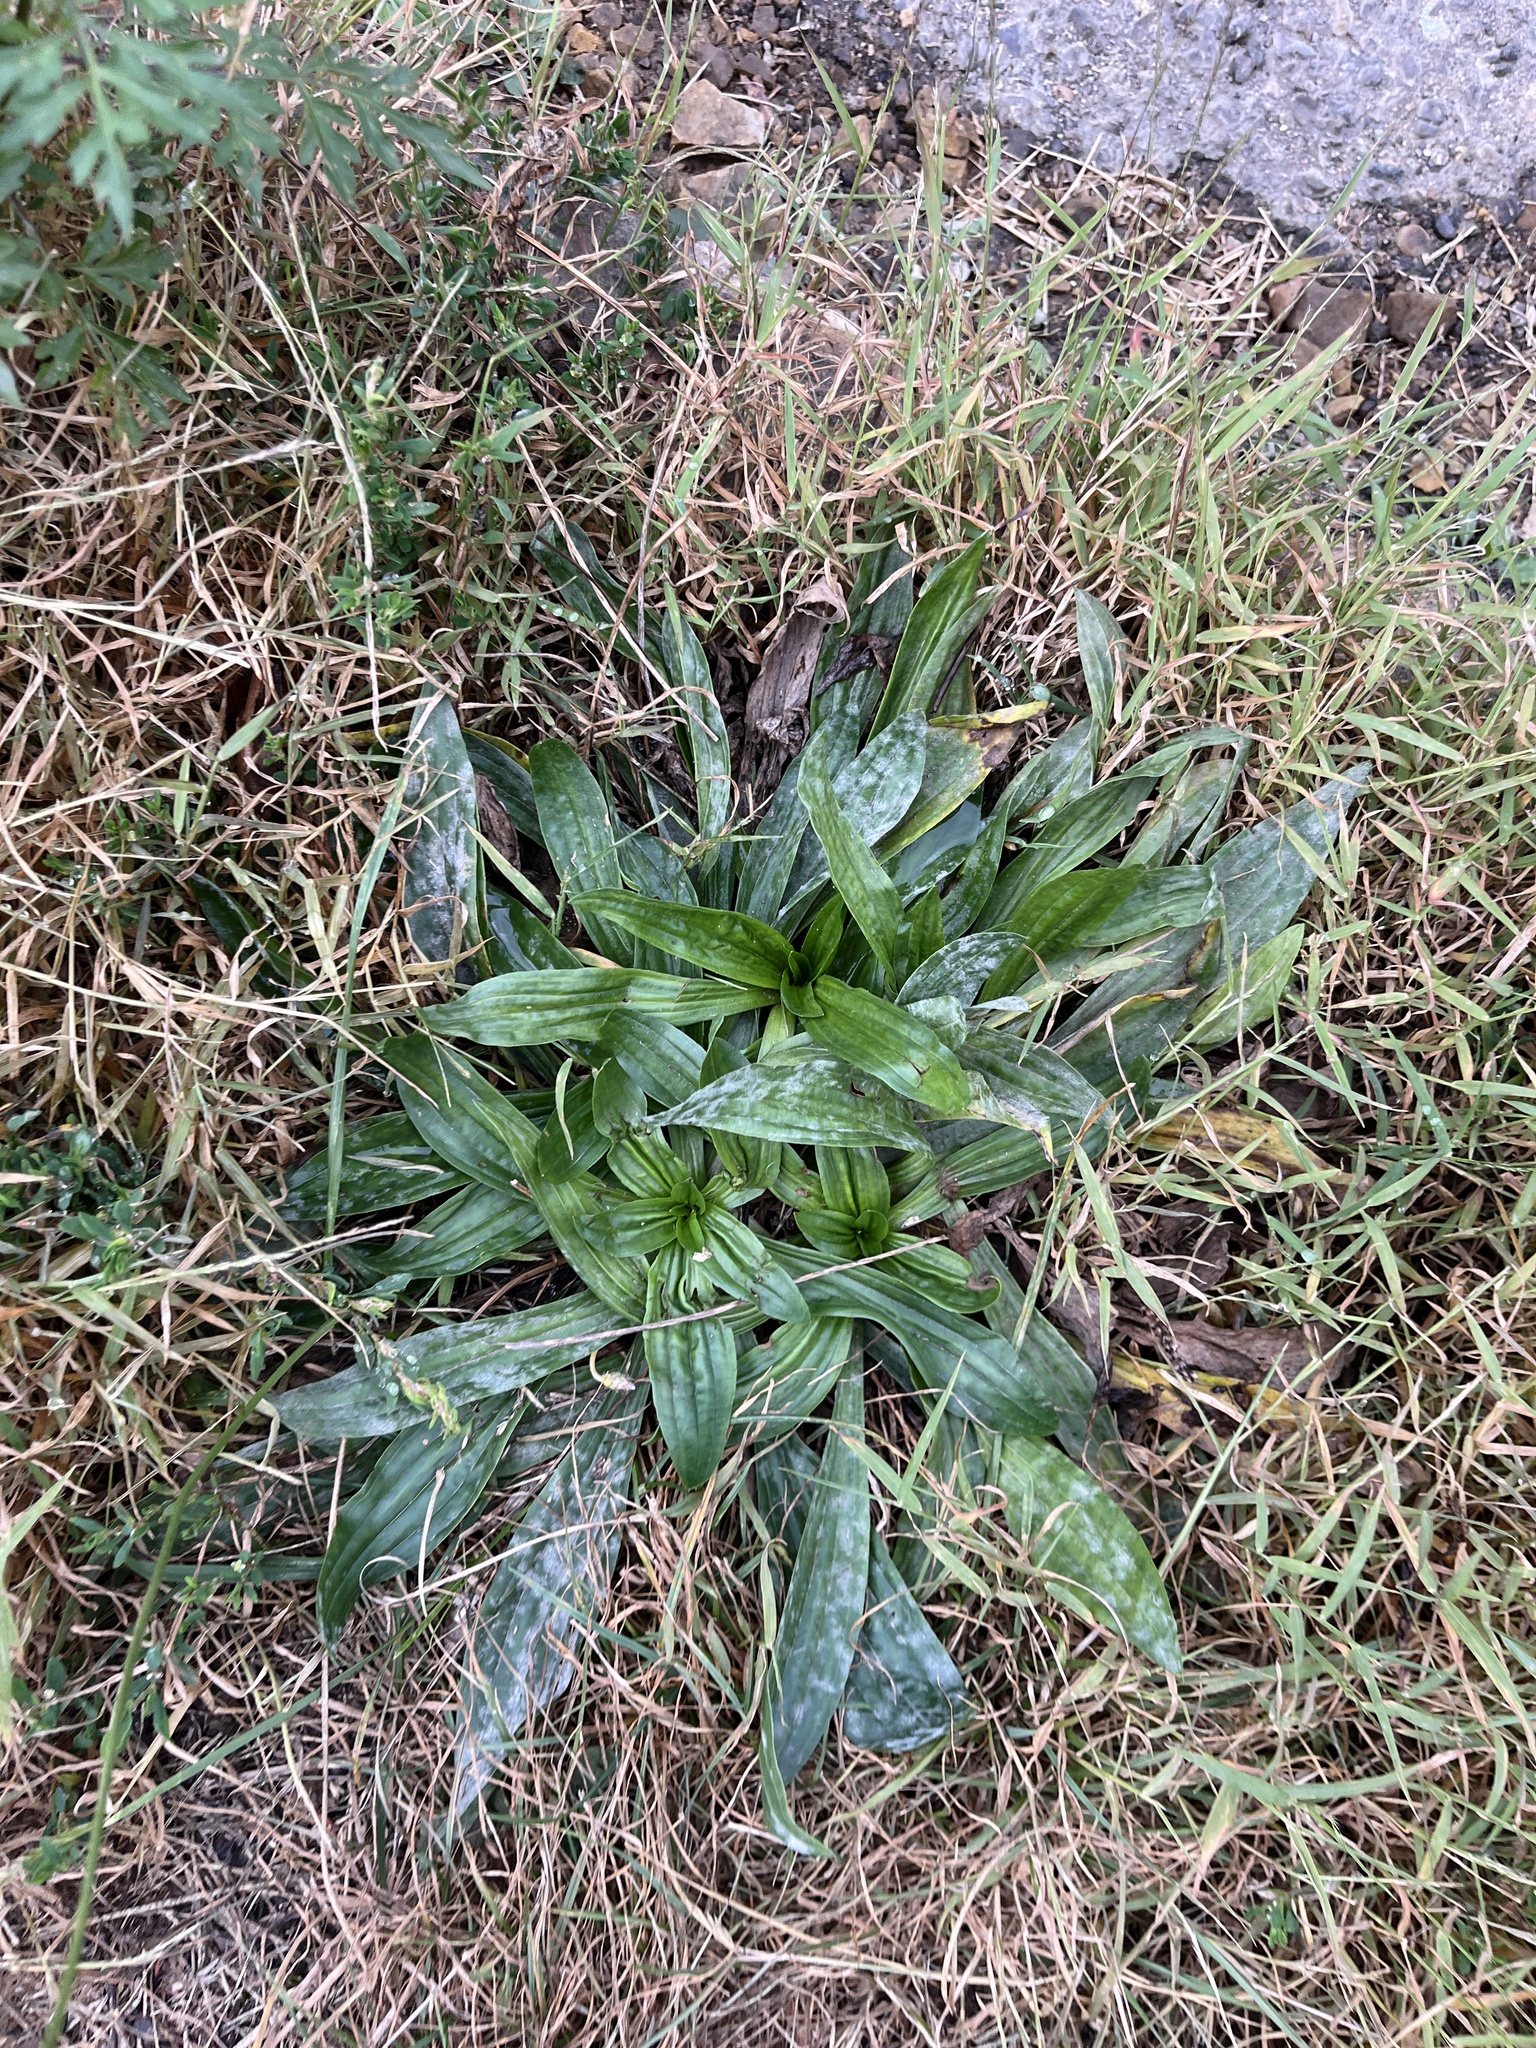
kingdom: Plantae
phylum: Tracheophyta
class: Magnoliopsida
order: Lamiales
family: Plantaginaceae
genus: Plantago
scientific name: Plantago lanceolata
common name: Ribwort plantain
